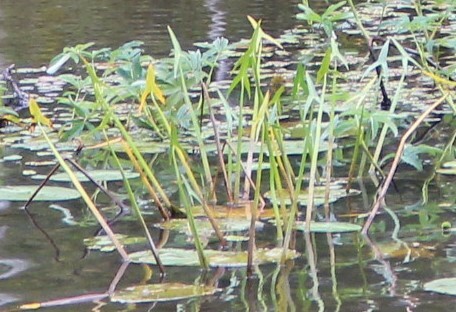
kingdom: Plantae
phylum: Tracheophyta
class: Liliopsida
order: Alismatales
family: Alismataceae
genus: Sagittaria
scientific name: Sagittaria sagittifolia
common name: Arrowhead
